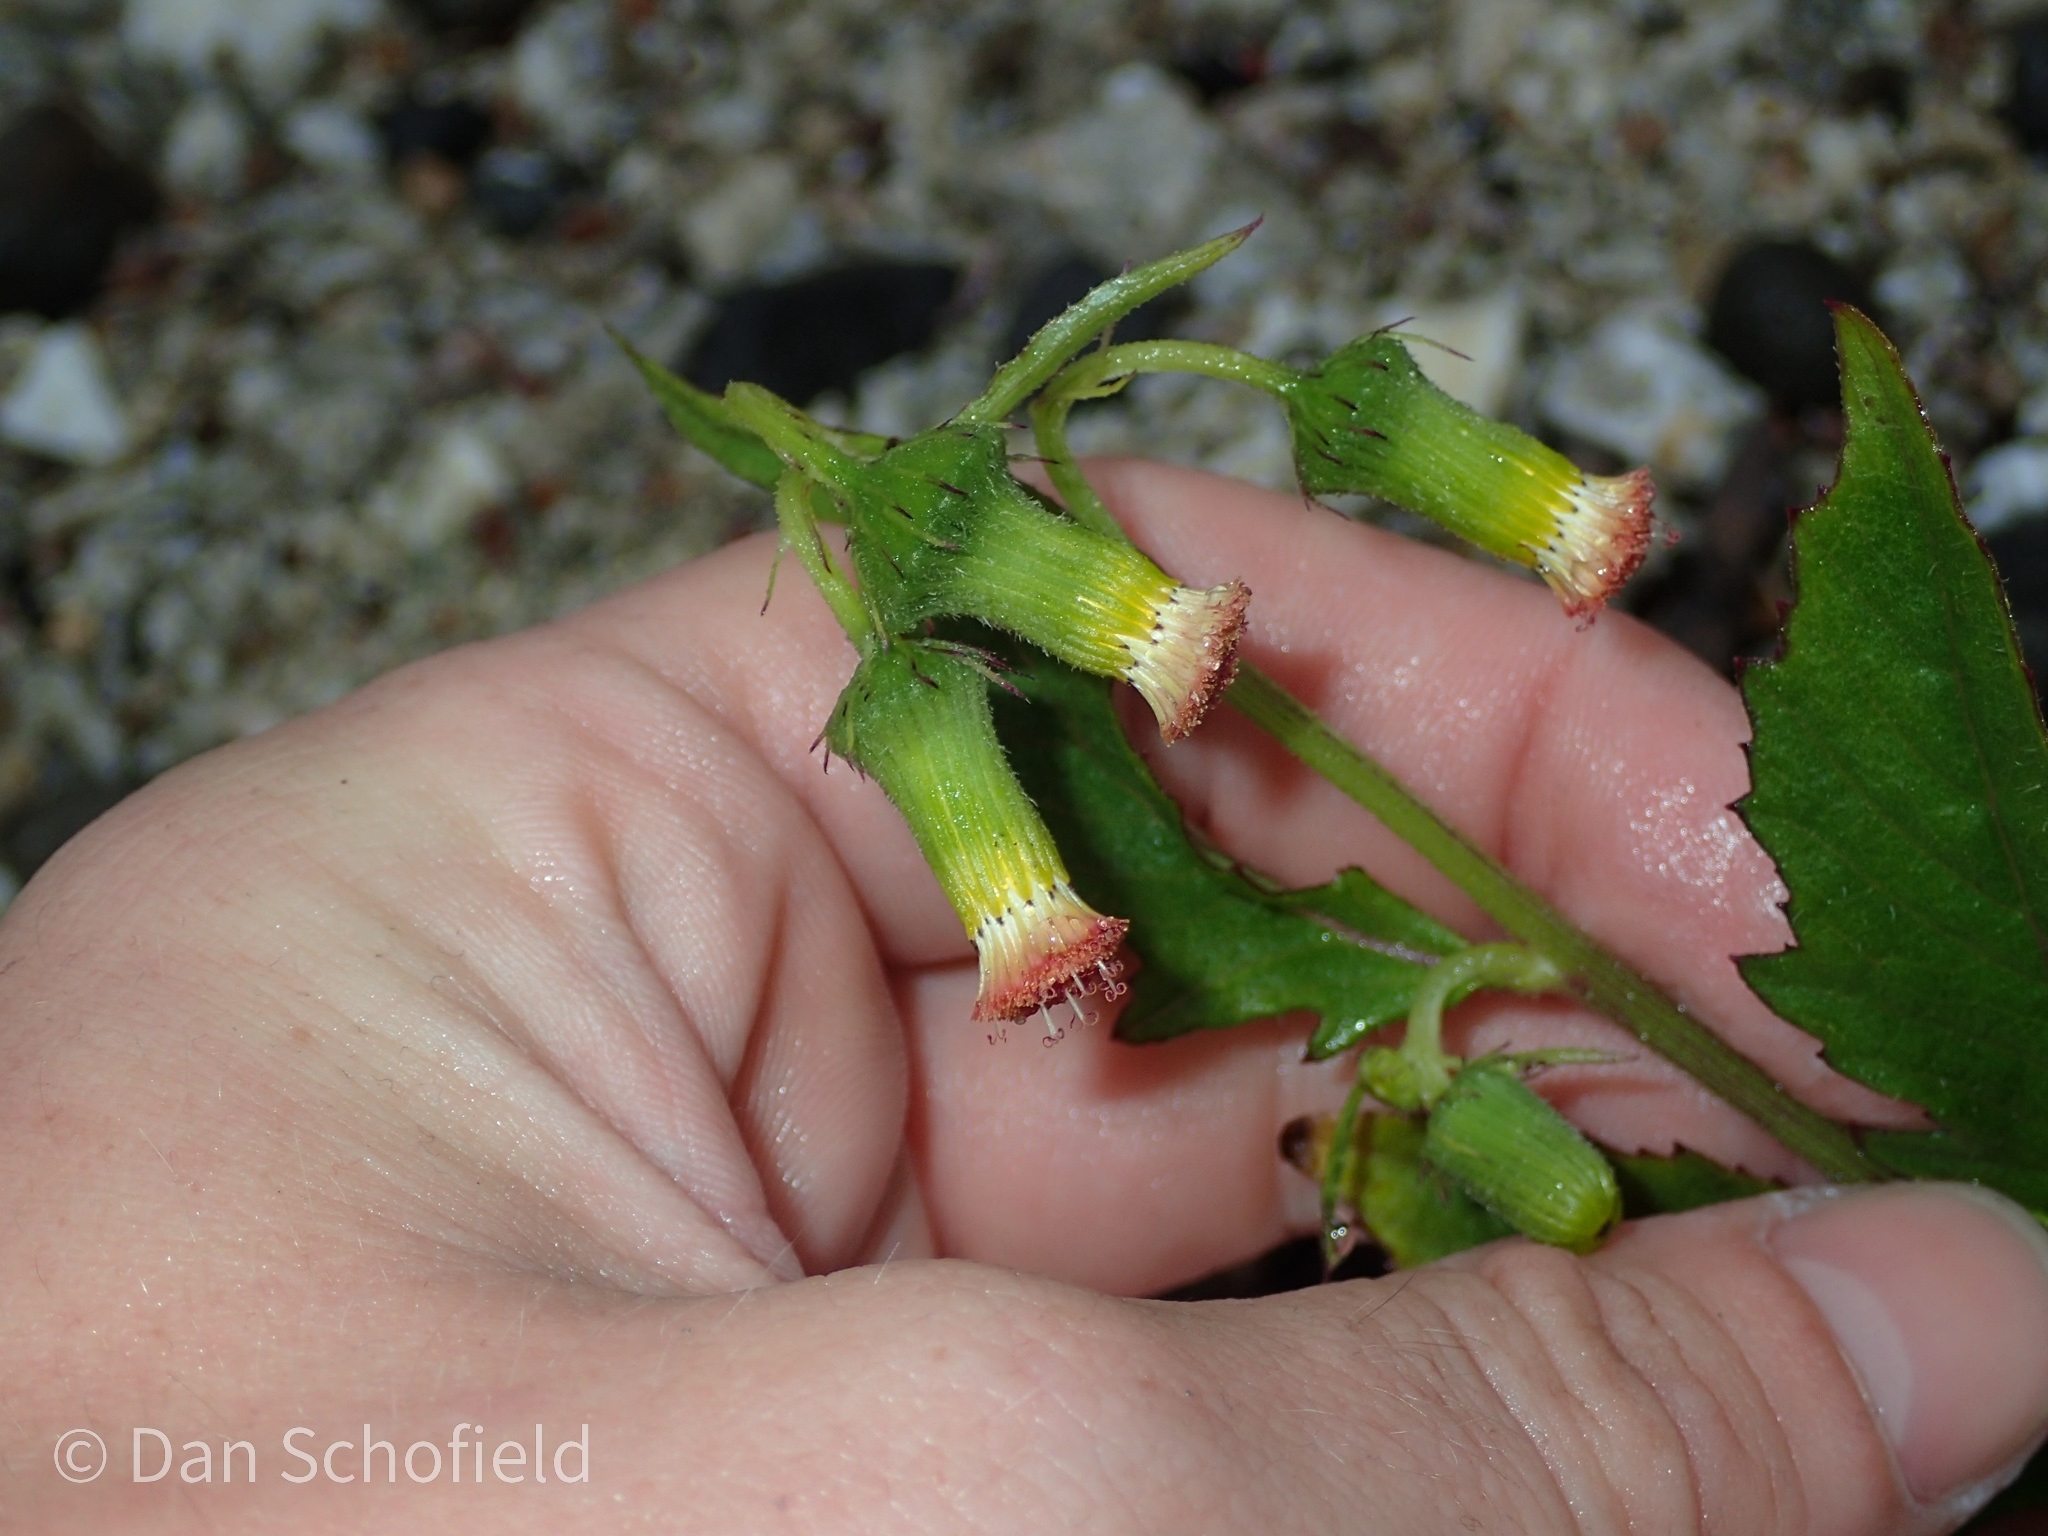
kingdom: Plantae
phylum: Tracheophyta
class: Magnoliopsida
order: Asterales
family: Asteraceae
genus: Crassocephalum
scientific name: Crassocephalum crepidioides
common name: Redflower ragleaf
